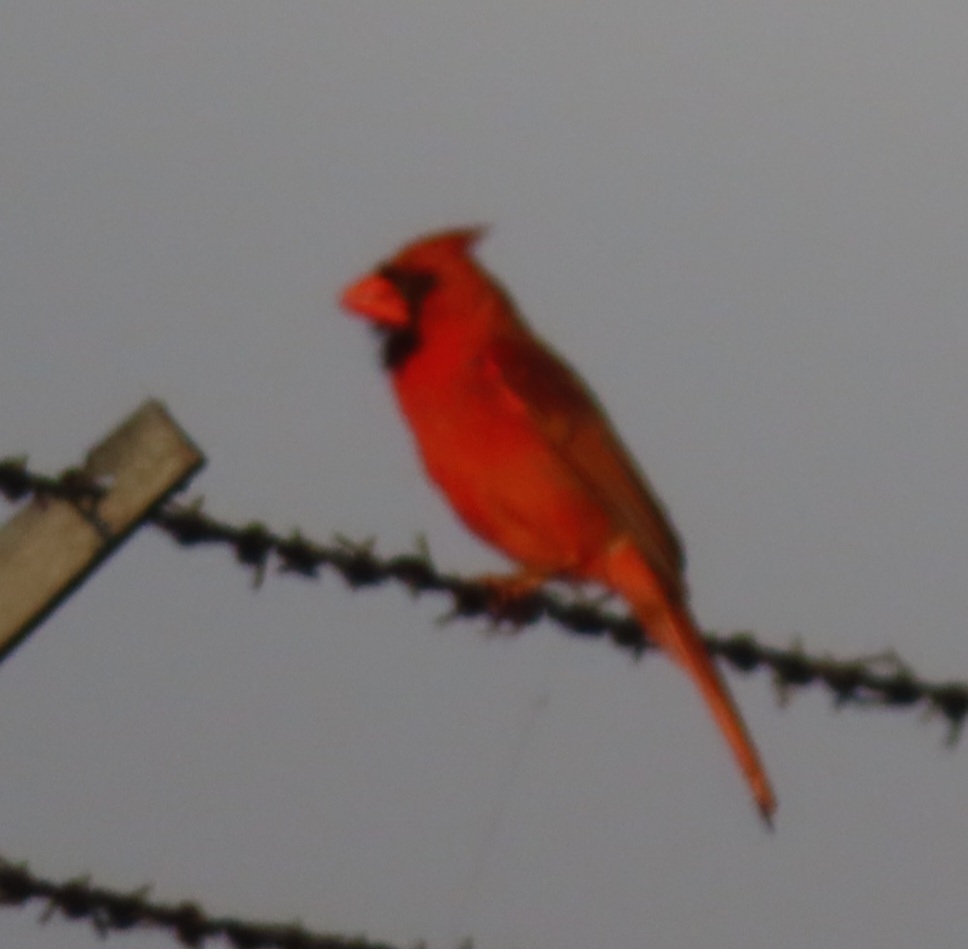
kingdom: Animalia
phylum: Chordata
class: Aves
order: Passeriformes
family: Cardinalidae
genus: Cardinalis
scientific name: Cardinalis cardinalis
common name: Northern cardinal
